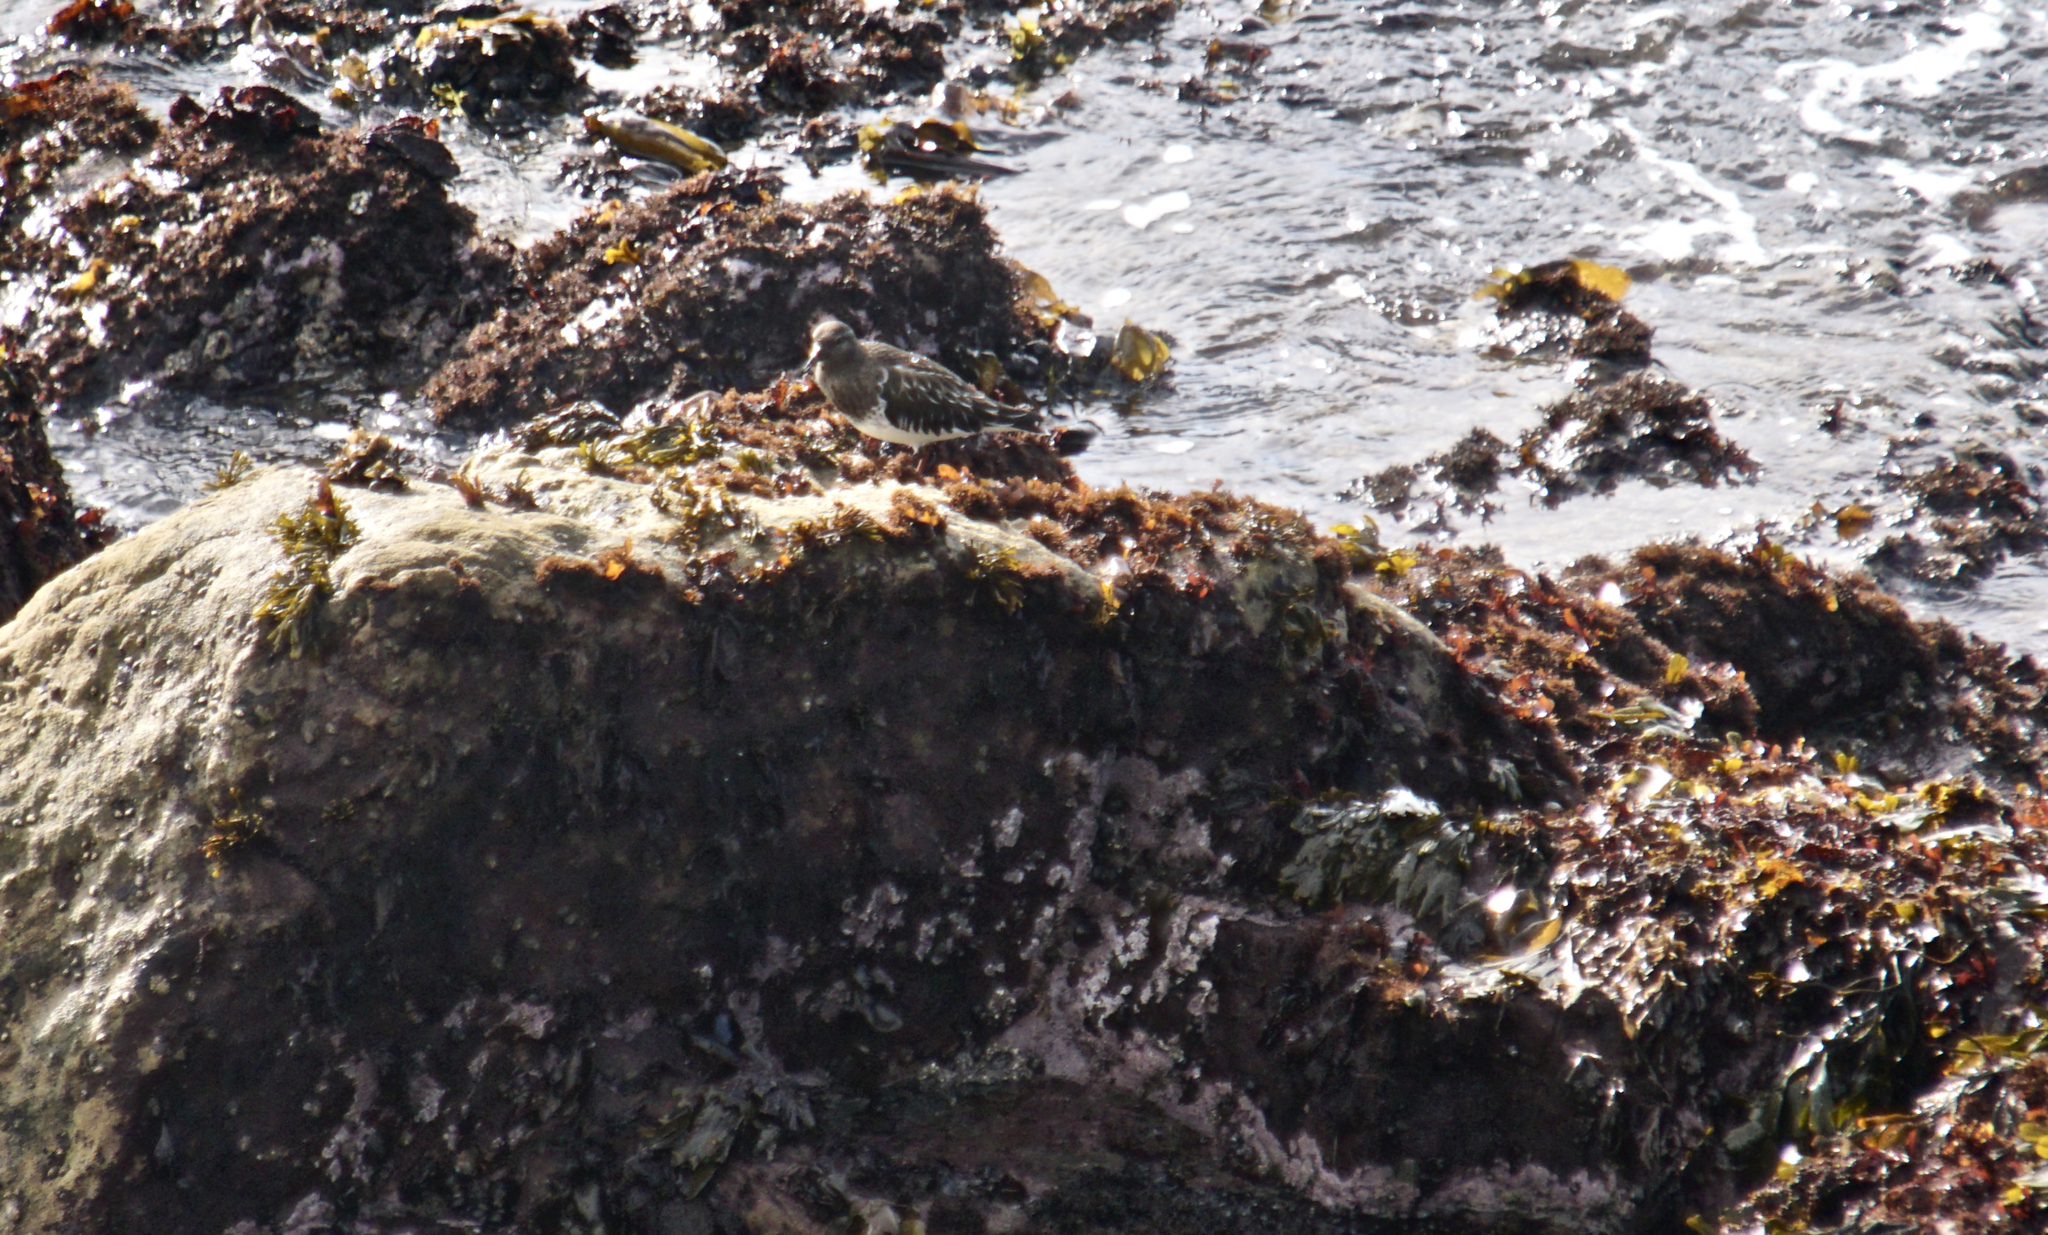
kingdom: Animalia
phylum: Chordata
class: Aves
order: Charadriiformes
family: Scolopacidae
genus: Arenaria
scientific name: Arenaria melanocephala
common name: Black turnstone
